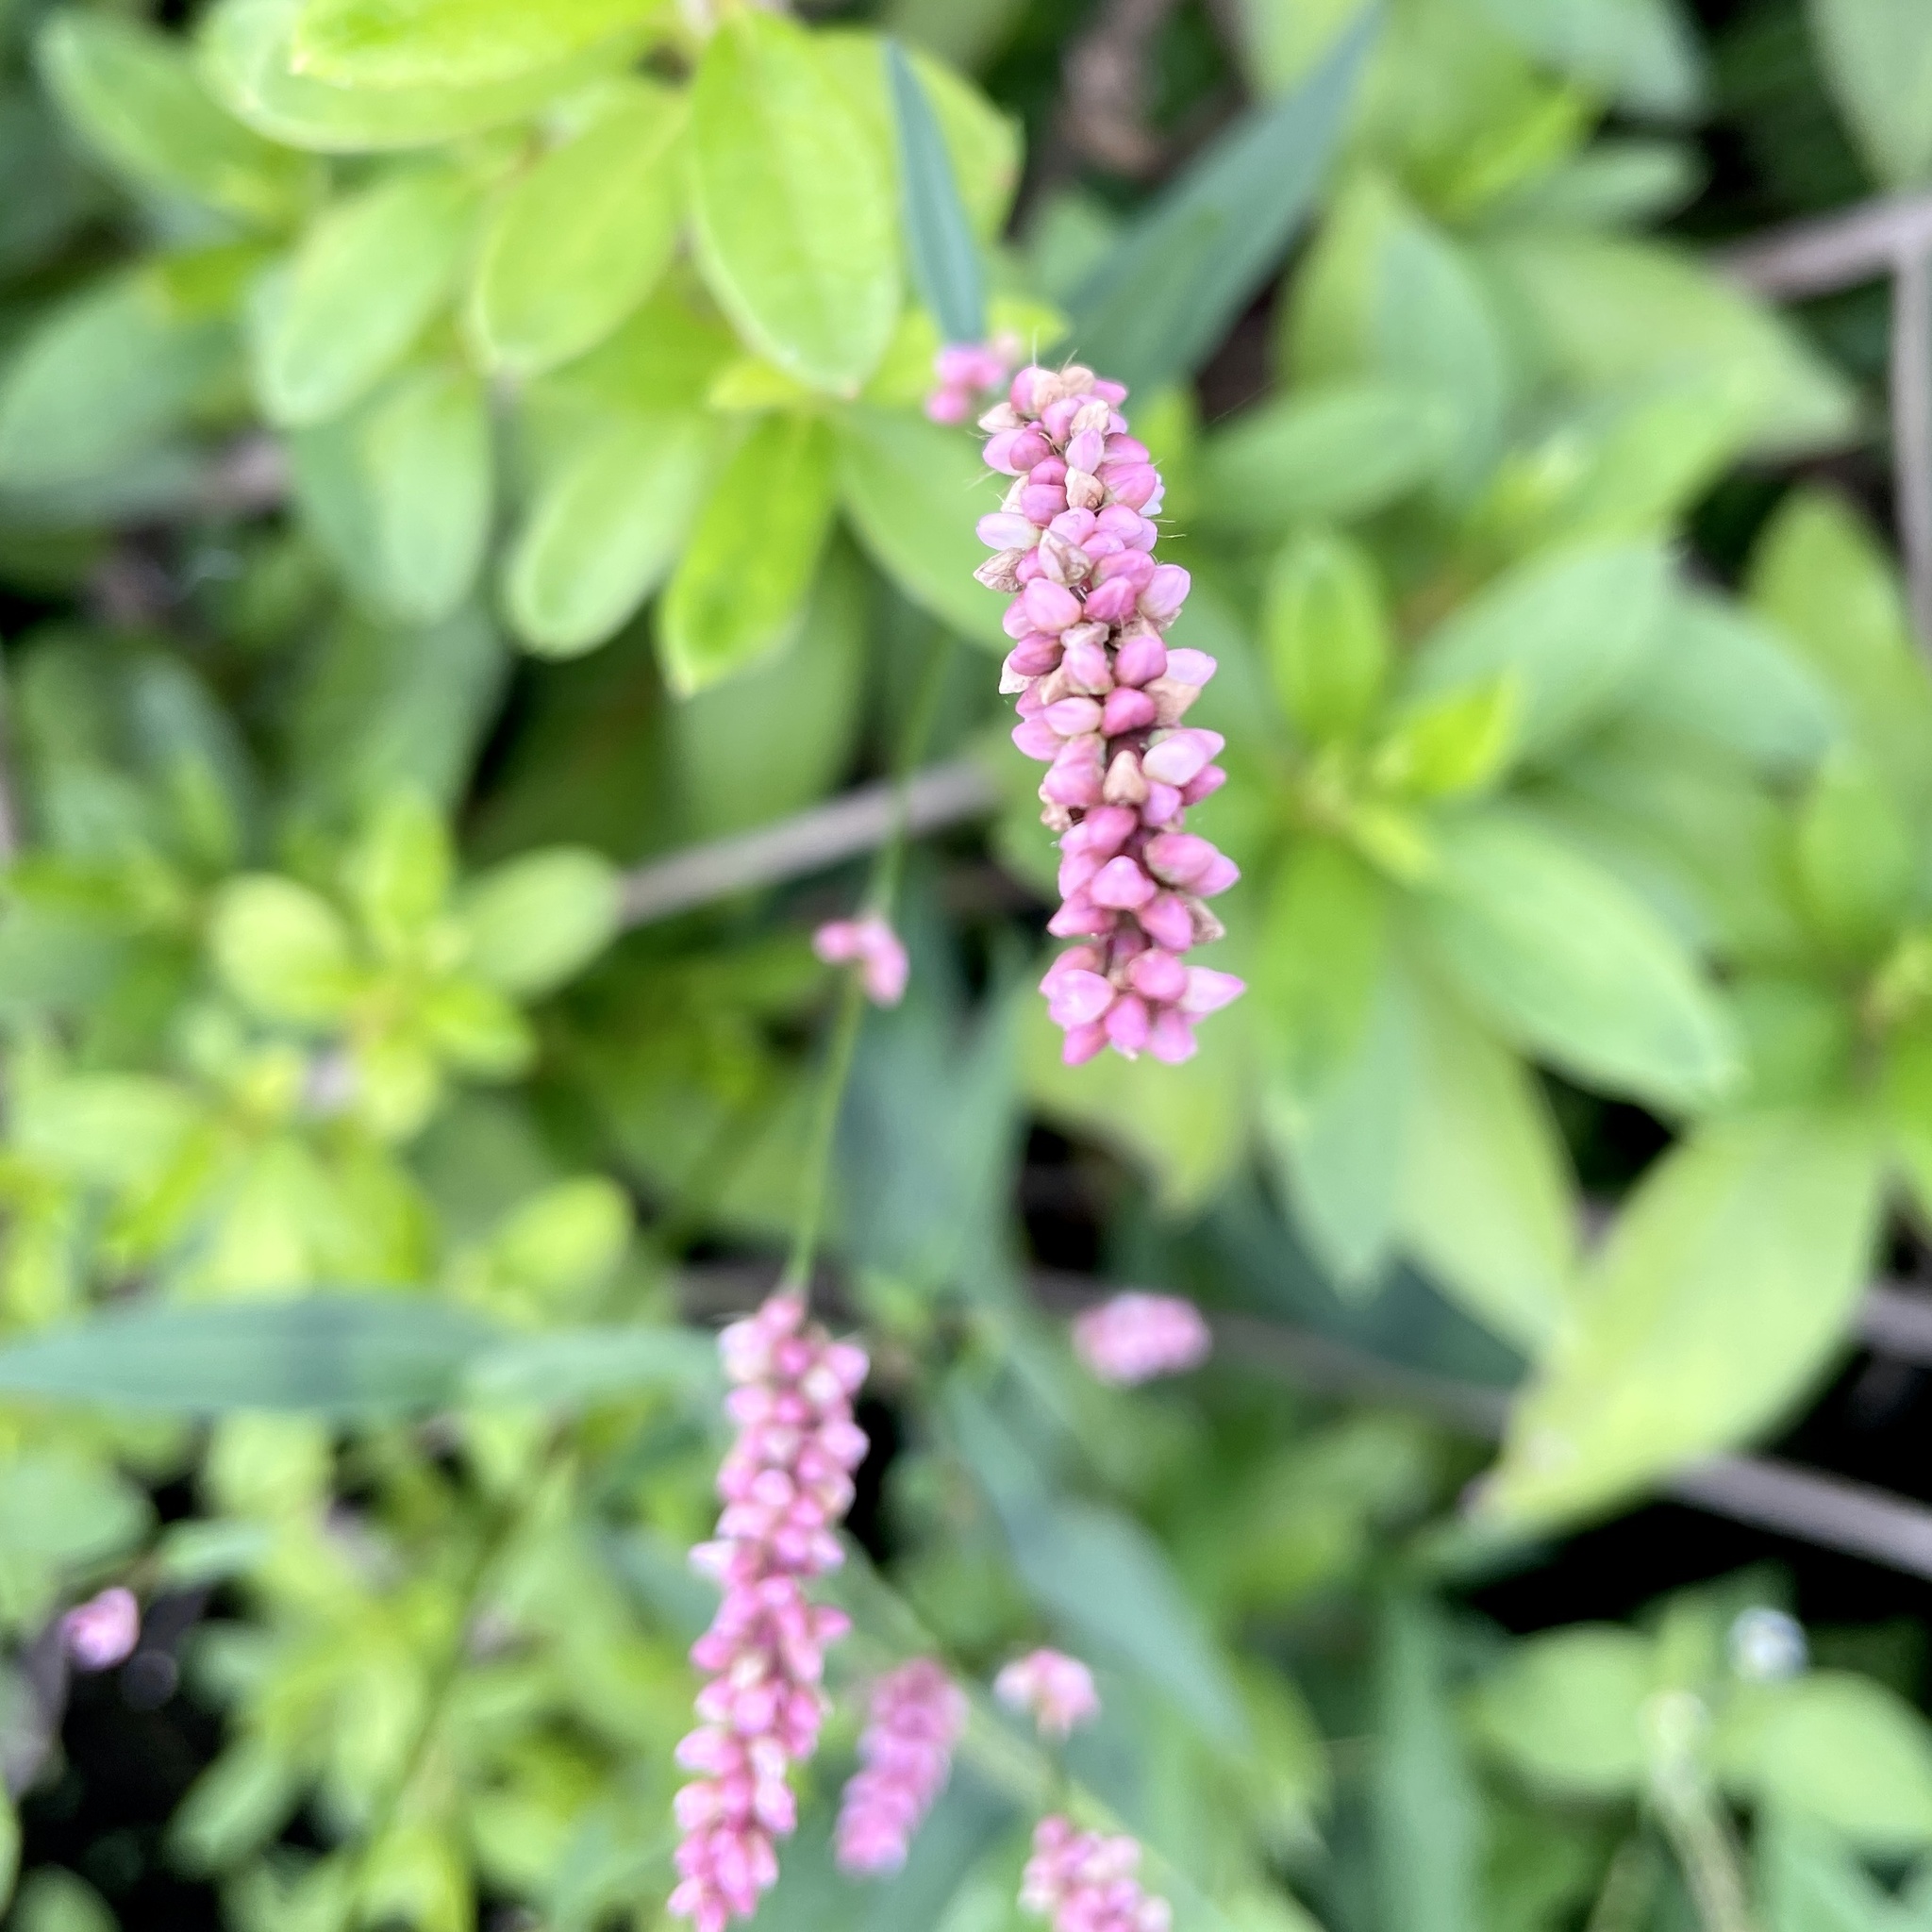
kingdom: Plantae
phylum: Tracheophyta
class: Magnoliopsida
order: Caryophyllales
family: Polygonaceae
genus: Persicaria
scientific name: Persicaria longiseta
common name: Bristly lady's-thumb
